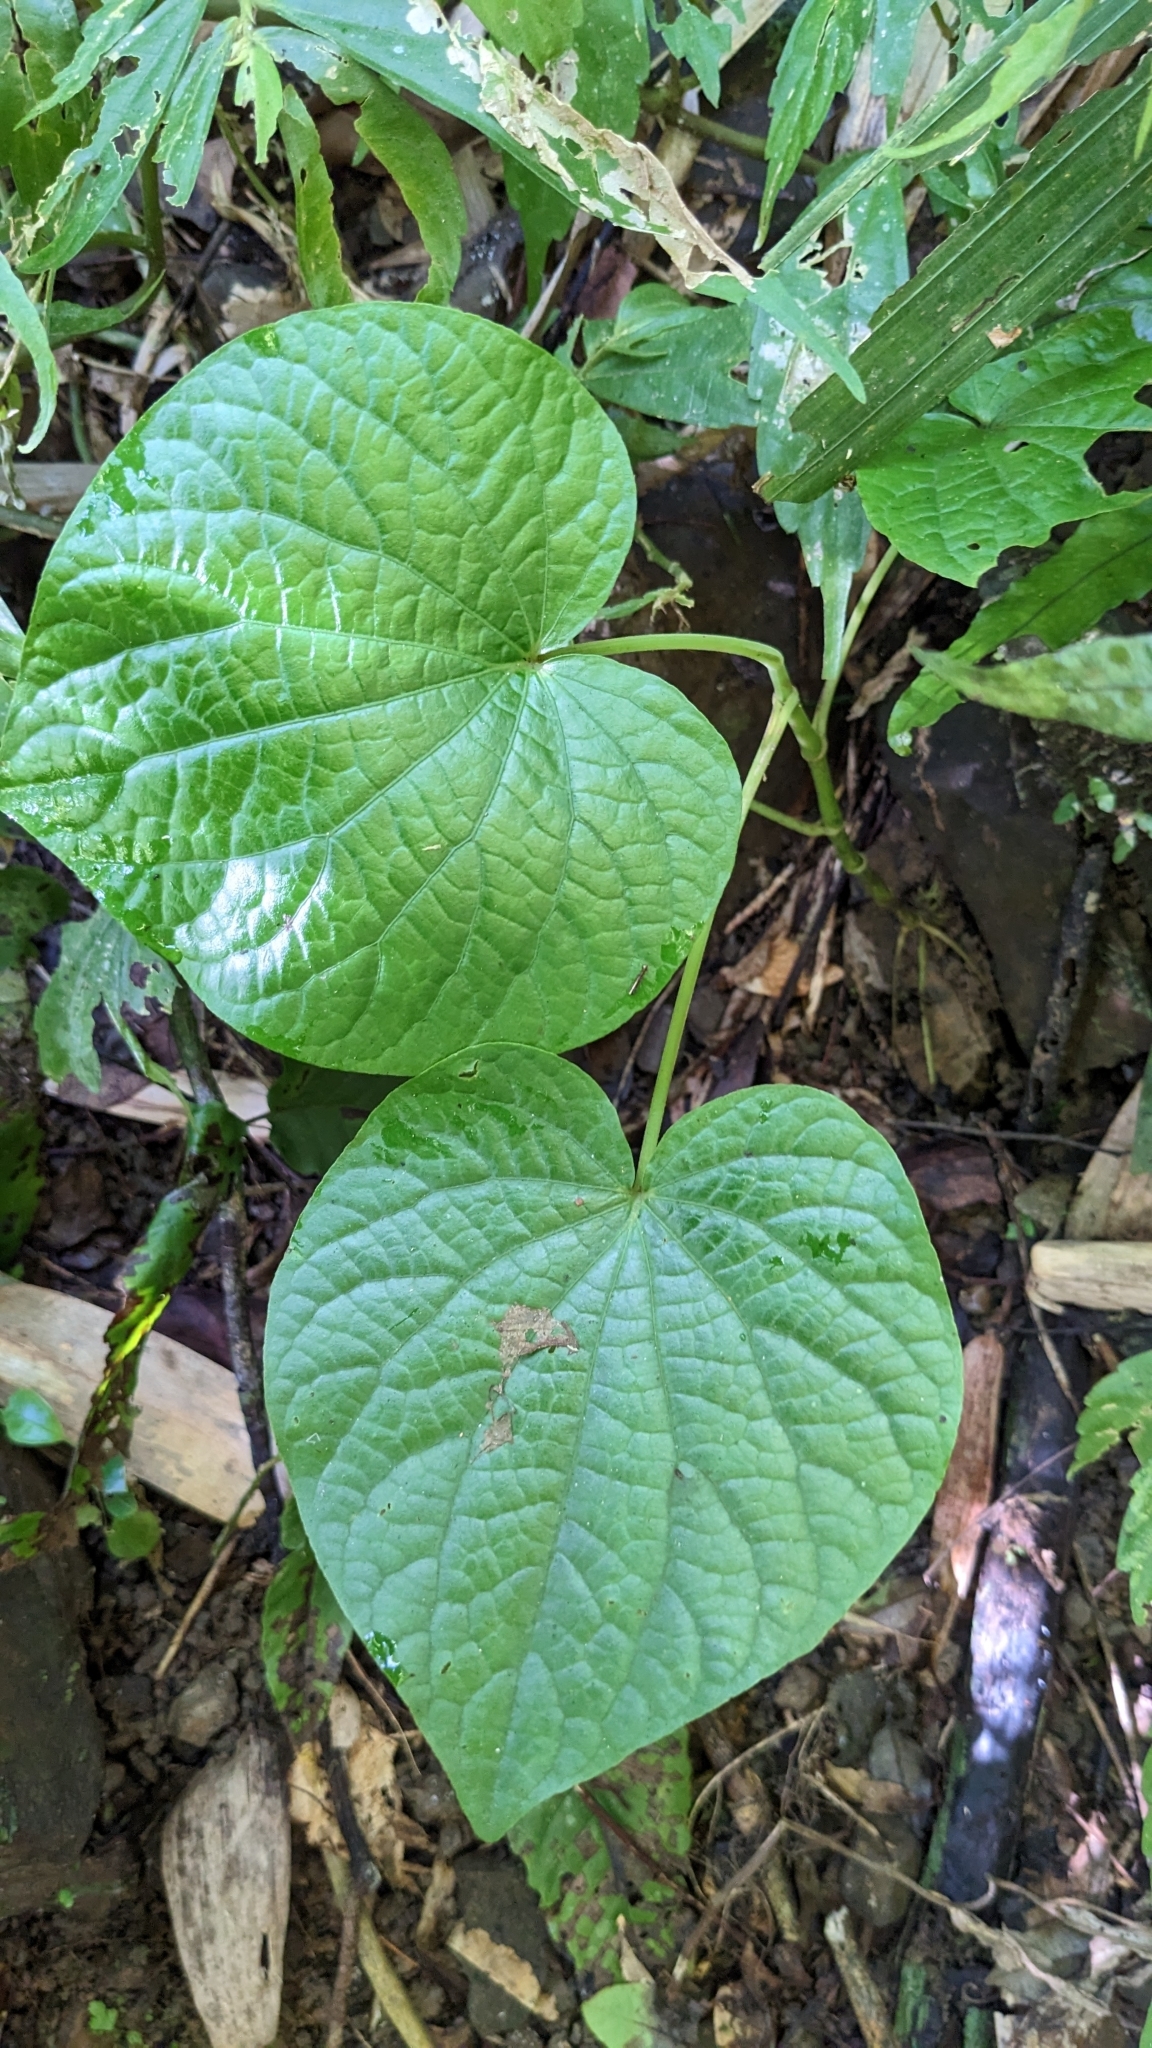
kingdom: Plantae
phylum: Tracheophyta
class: Magnoliopsida
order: Piperales
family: Piperaceae
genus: Piper
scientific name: Piper umbellatum
